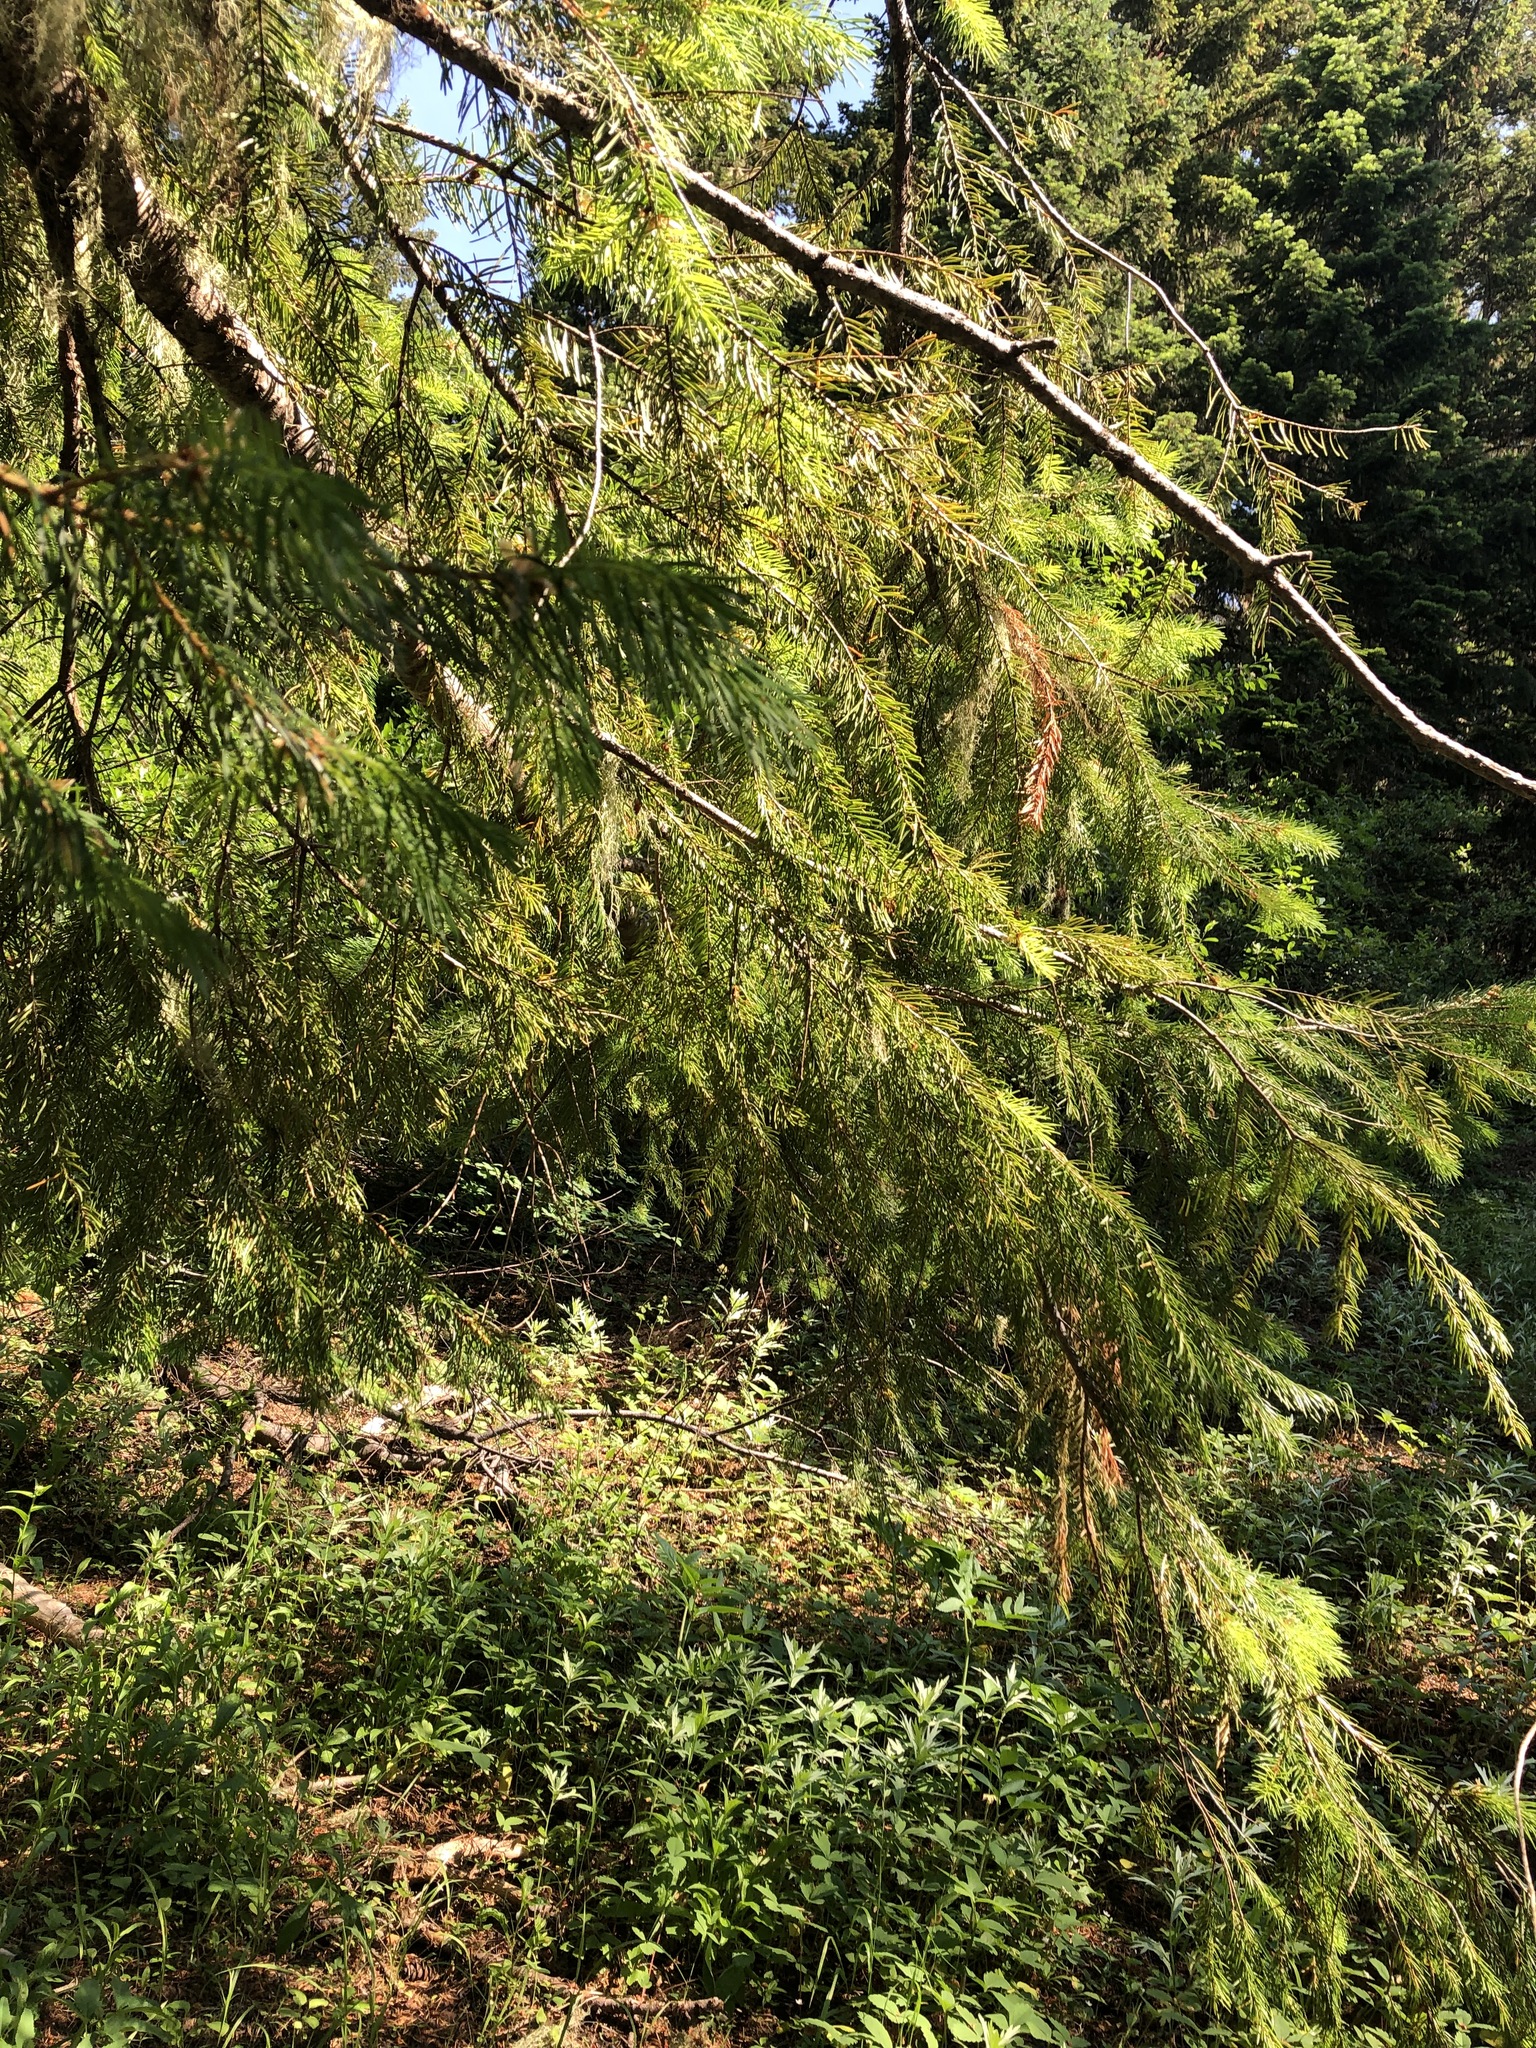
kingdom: Plantae
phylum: Tracheophyta
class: Pinopsida
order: Pinales
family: Pinaceae
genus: Pseudotsuga
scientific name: Pseudotsuga menziesii
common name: Douglas fir
